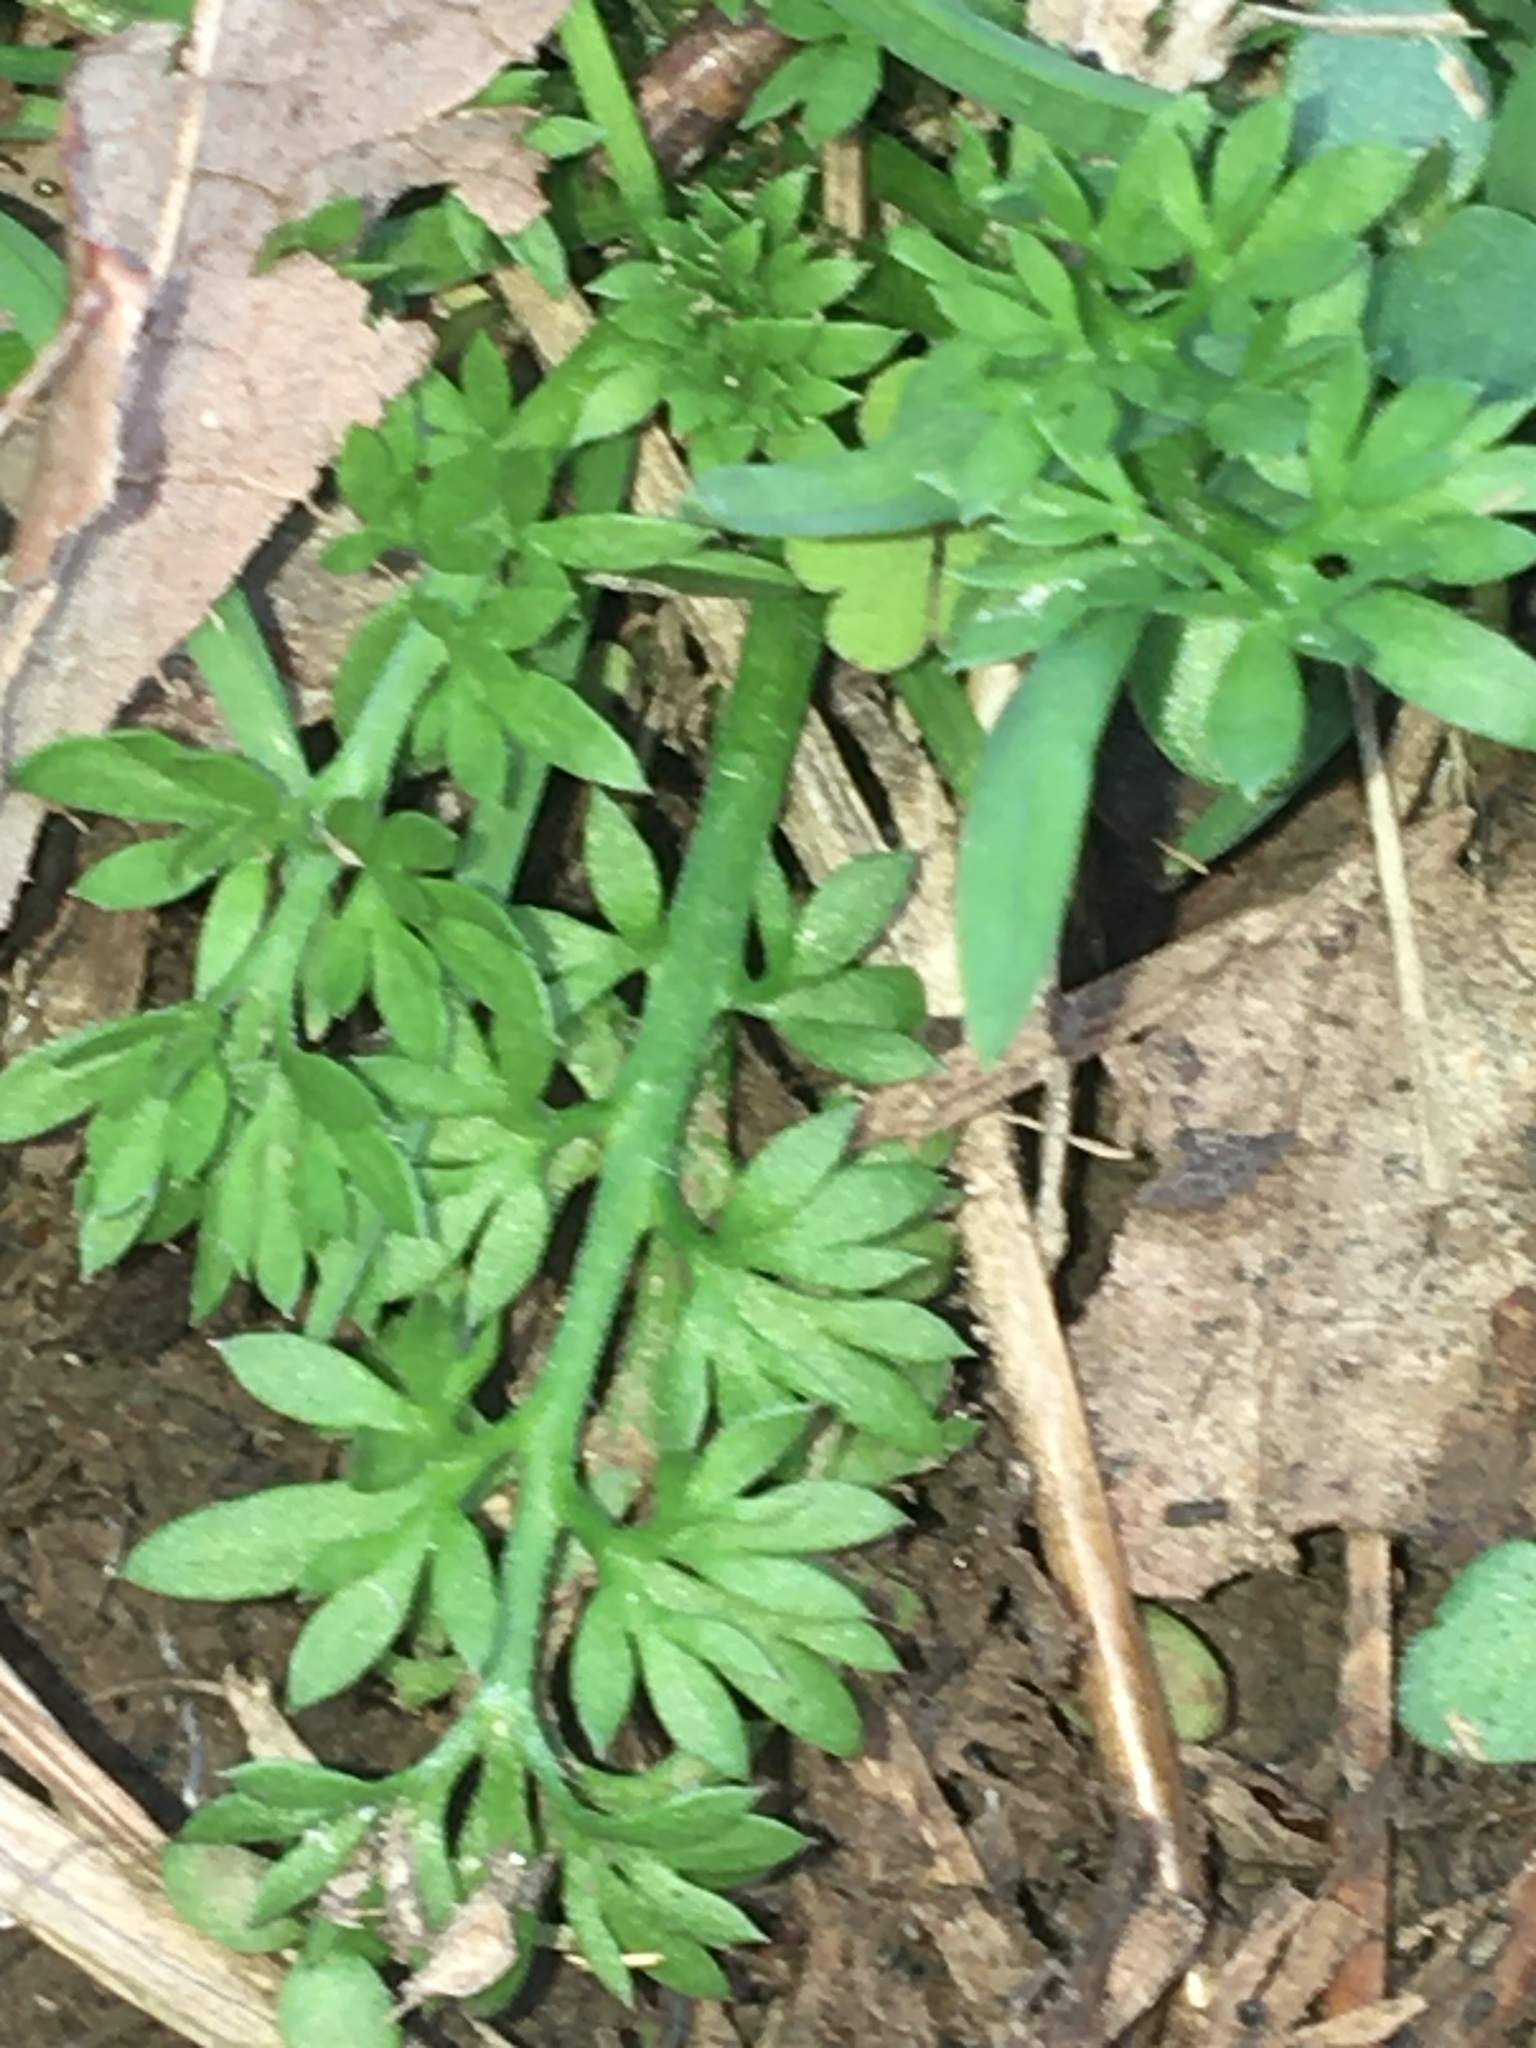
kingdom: Plantae
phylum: Tracheophyta
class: Magnoliopsida
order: Asterales
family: Asteraceae
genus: Soliva
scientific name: Soliva sessilis
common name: Field burrweed
